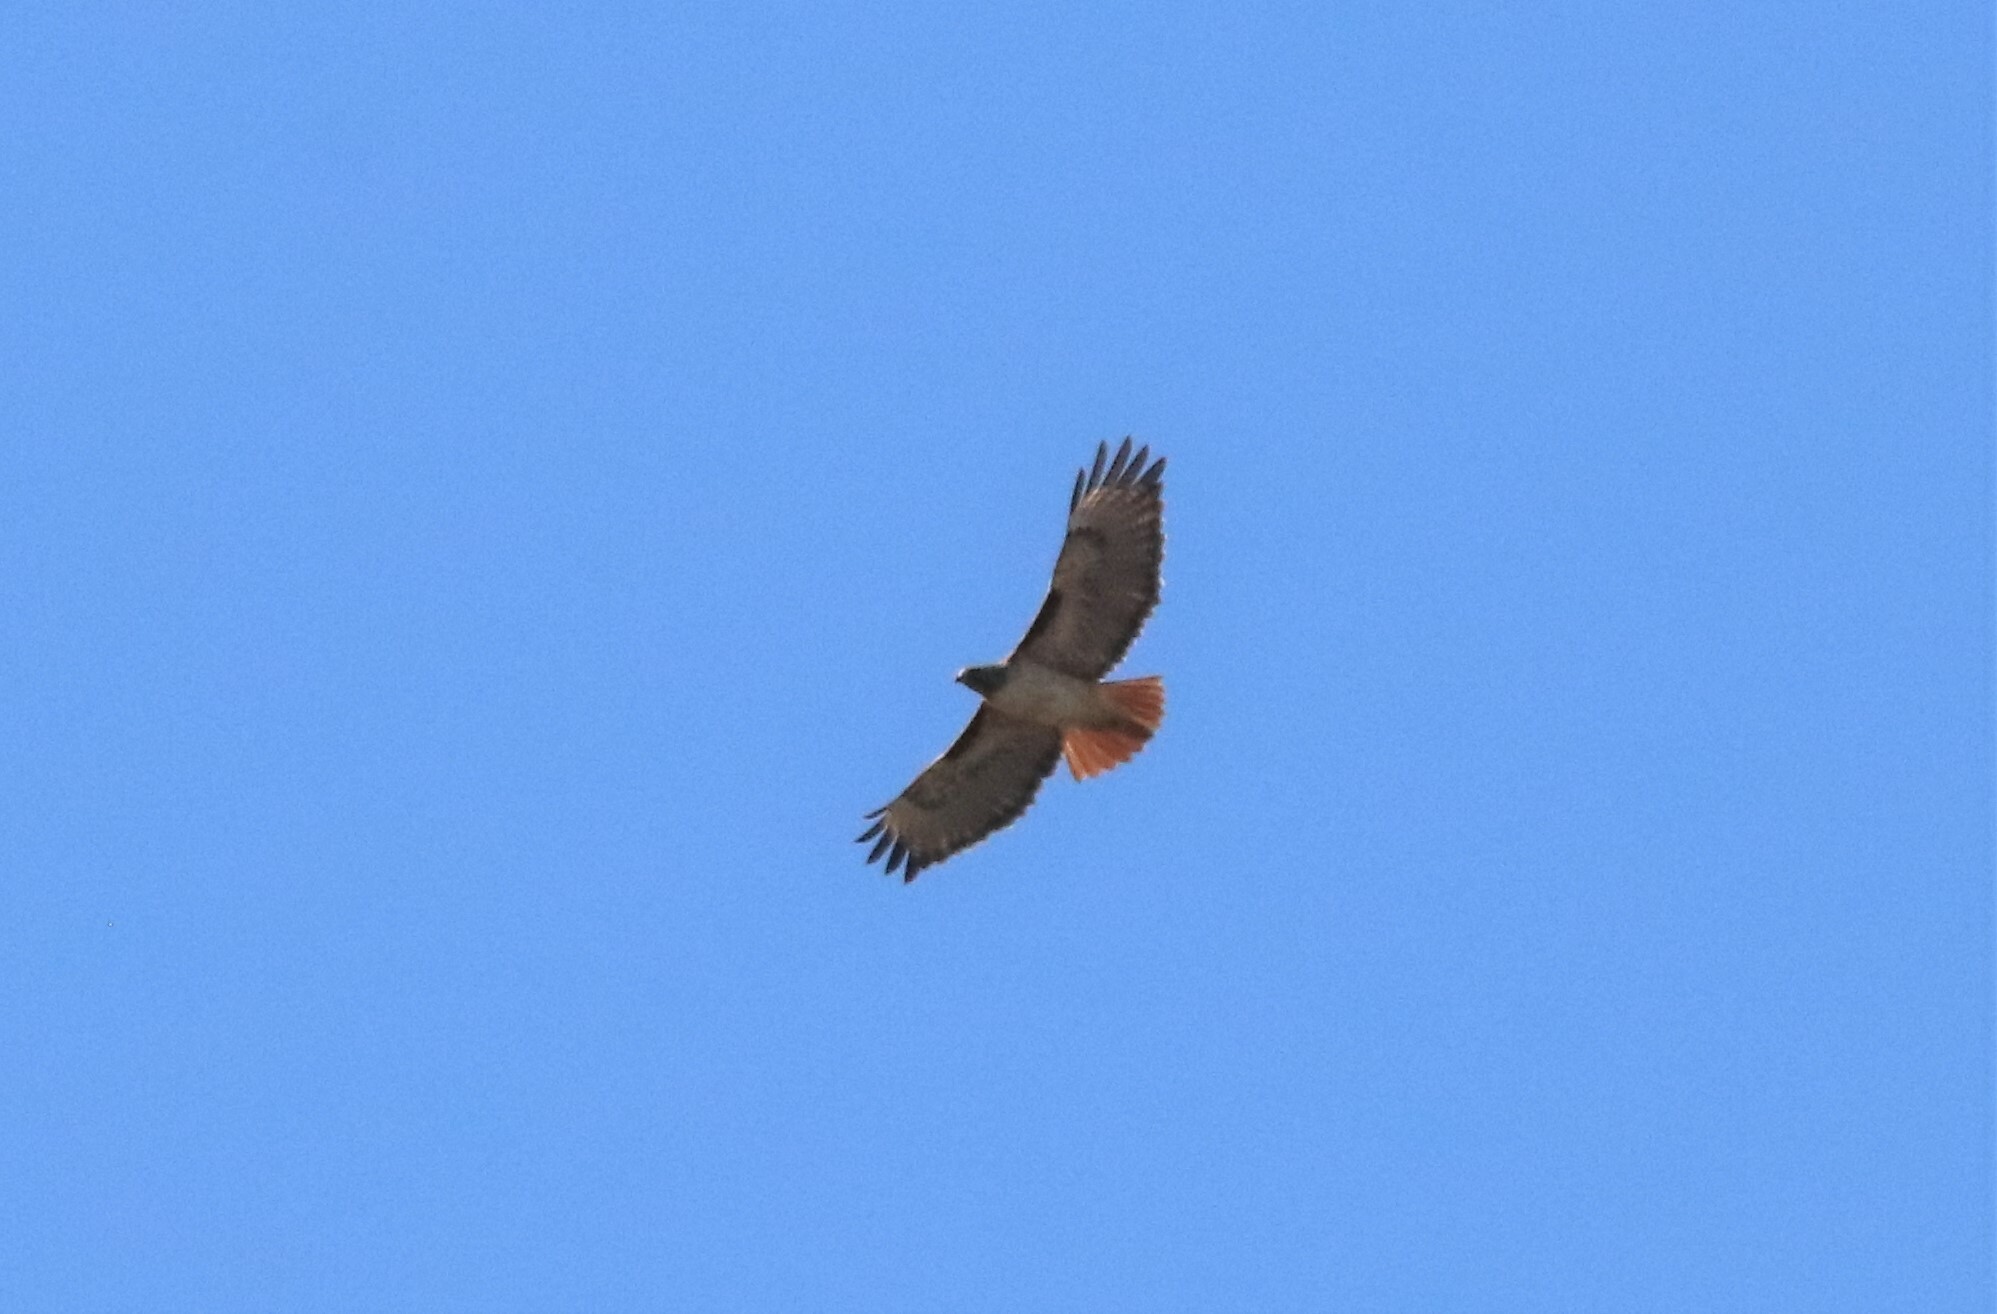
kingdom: Animalia
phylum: Chordata
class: Aves
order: Accipitriformes
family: Accipitridae
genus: Buteo
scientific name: Buteo jamaicensis
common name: Red-tailed hawk
